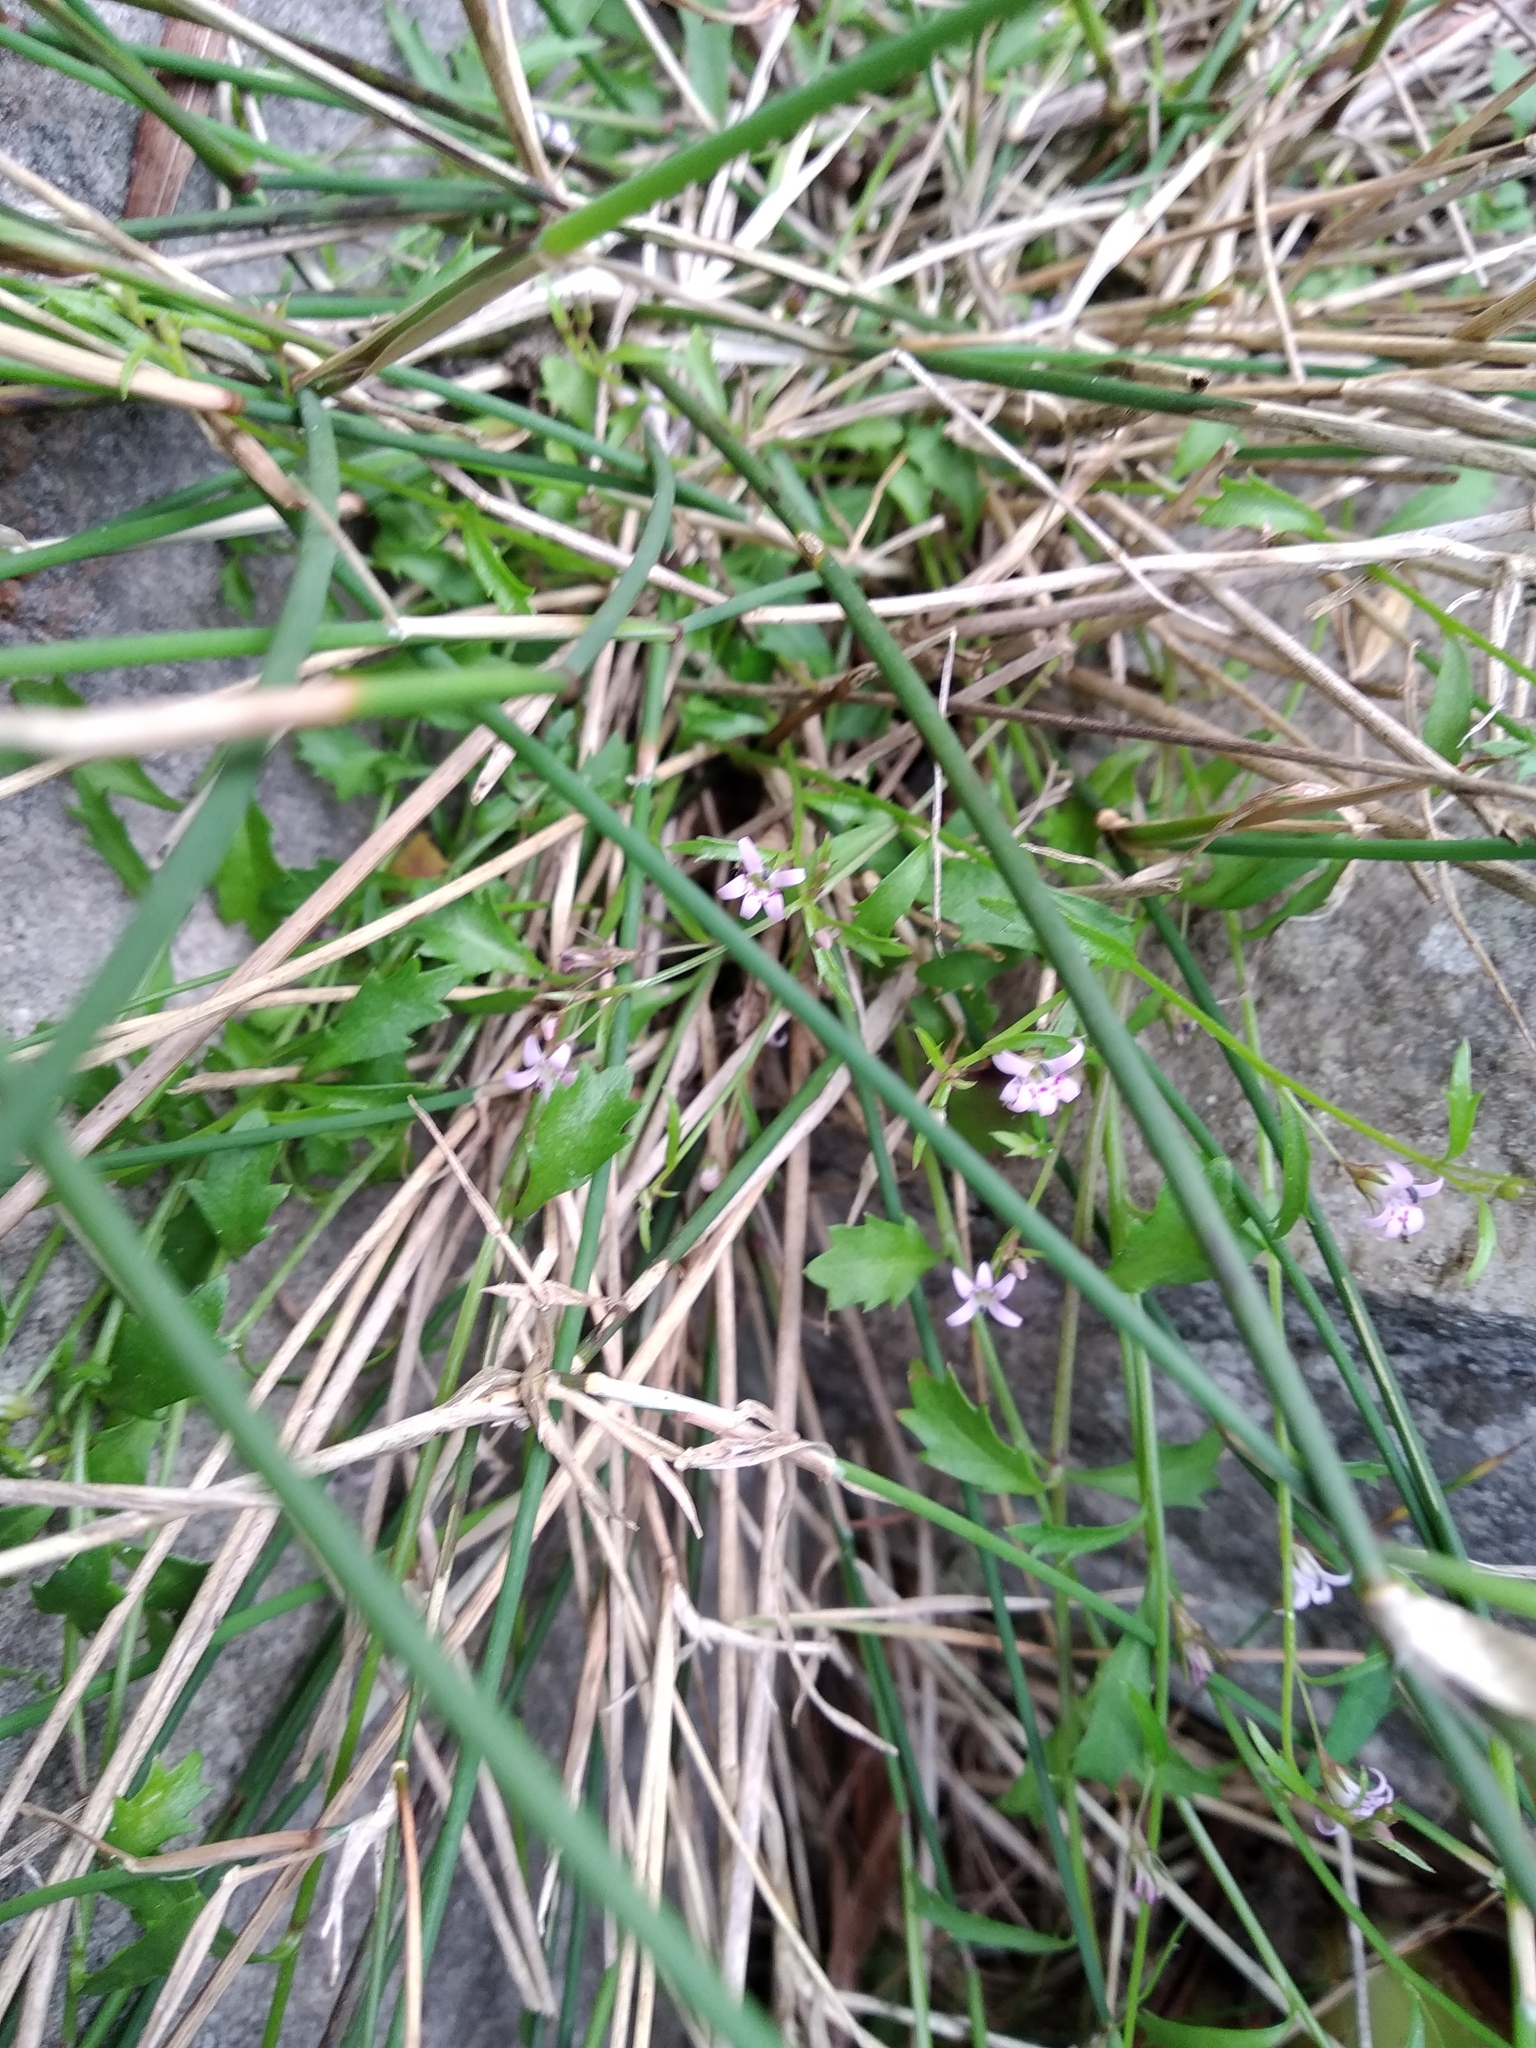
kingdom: Plantae
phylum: Tracheophyta
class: Magnoliopsida
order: Asterales
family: Campanulaceae
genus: Lobelia
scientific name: Lobelia eckloniana
